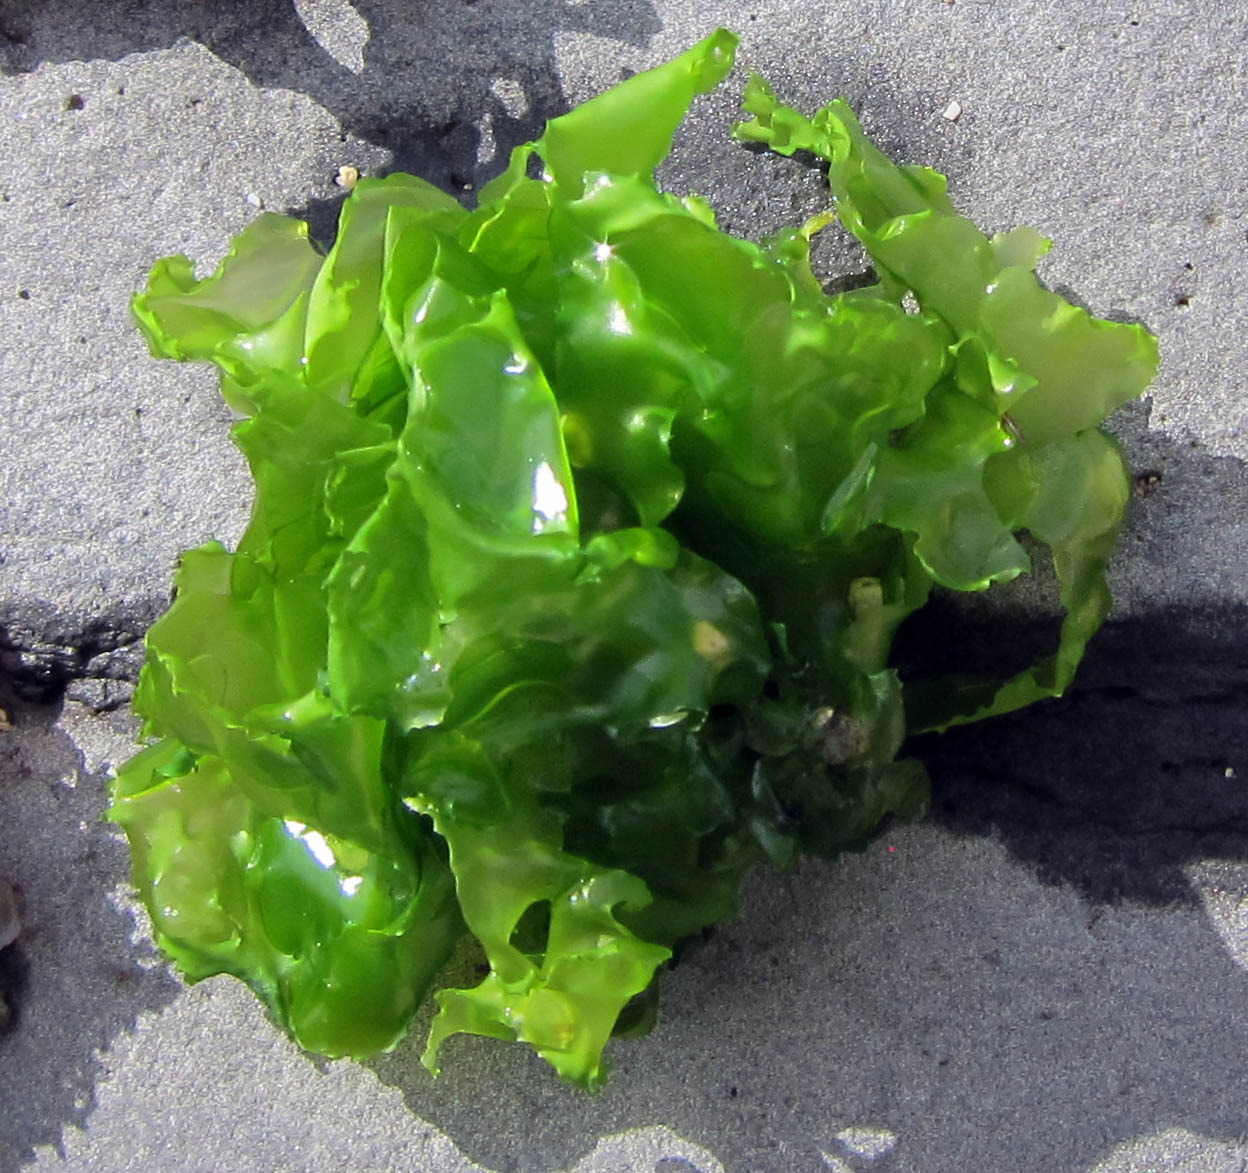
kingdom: Plantae
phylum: Chlorophyta
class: Ulvophyceae
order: Ulvales
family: Ulvaceae
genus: Ulva
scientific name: Ulva lactuca
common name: Sea lettuce
